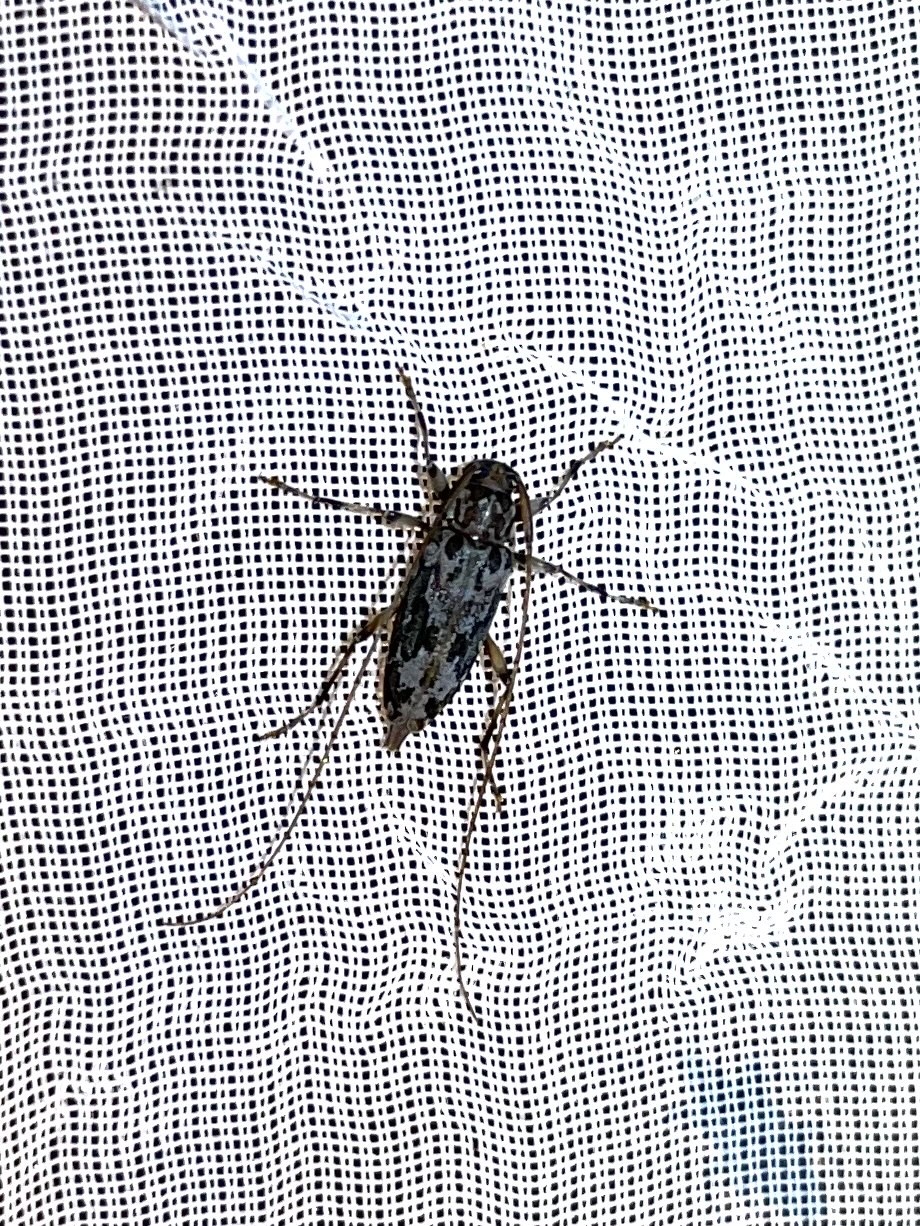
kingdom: Animalia
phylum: Arthropoda
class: Insecta
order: Coleoptera
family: Cerambycidae
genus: Lepturges
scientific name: Lepturges confluens
